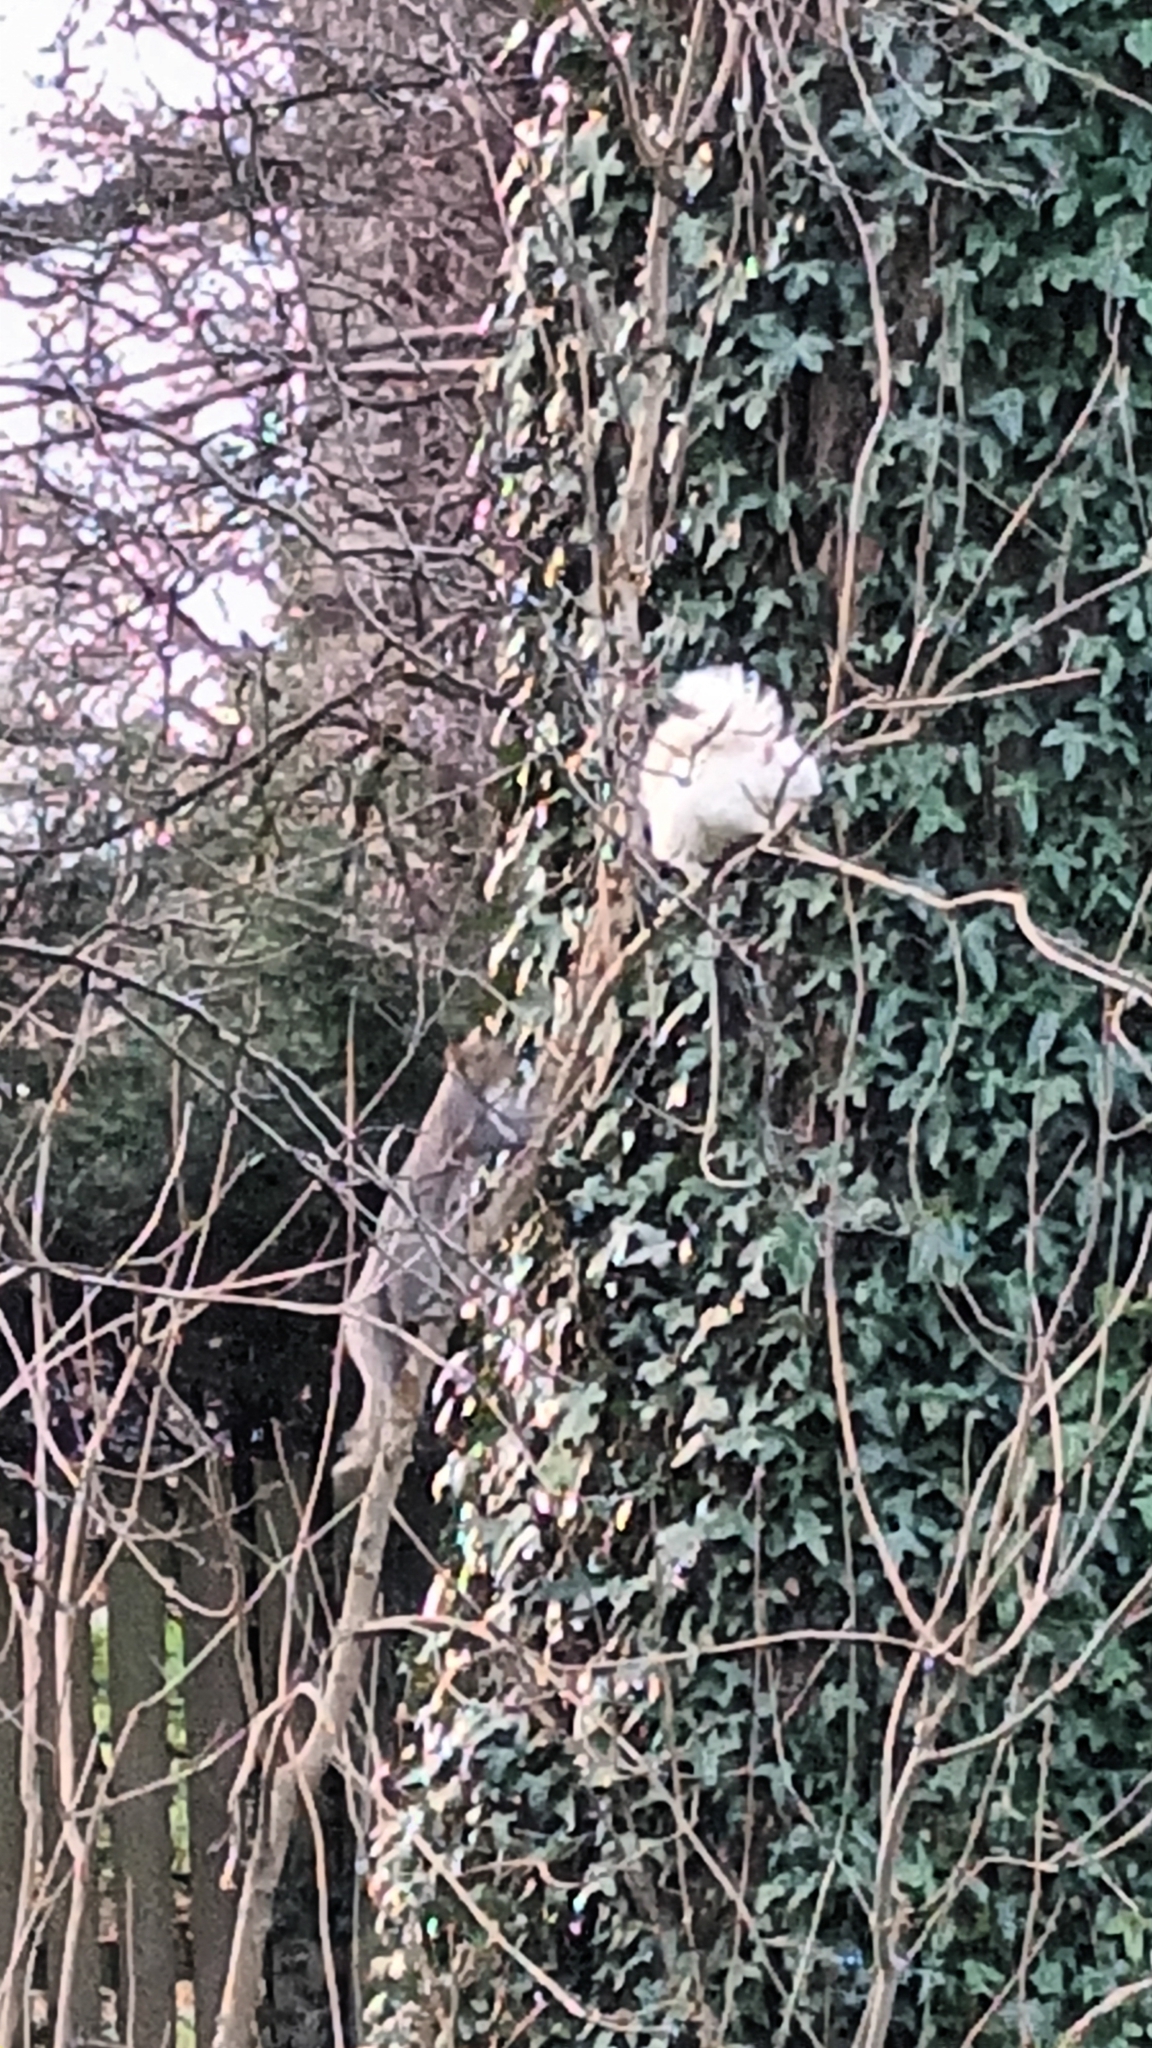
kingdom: Animalia
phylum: Chordata
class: Mammalia
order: Rodentia
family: Sciuridae
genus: Sciurus
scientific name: Sciurus carolinensis
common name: Eastern gray squirrel
